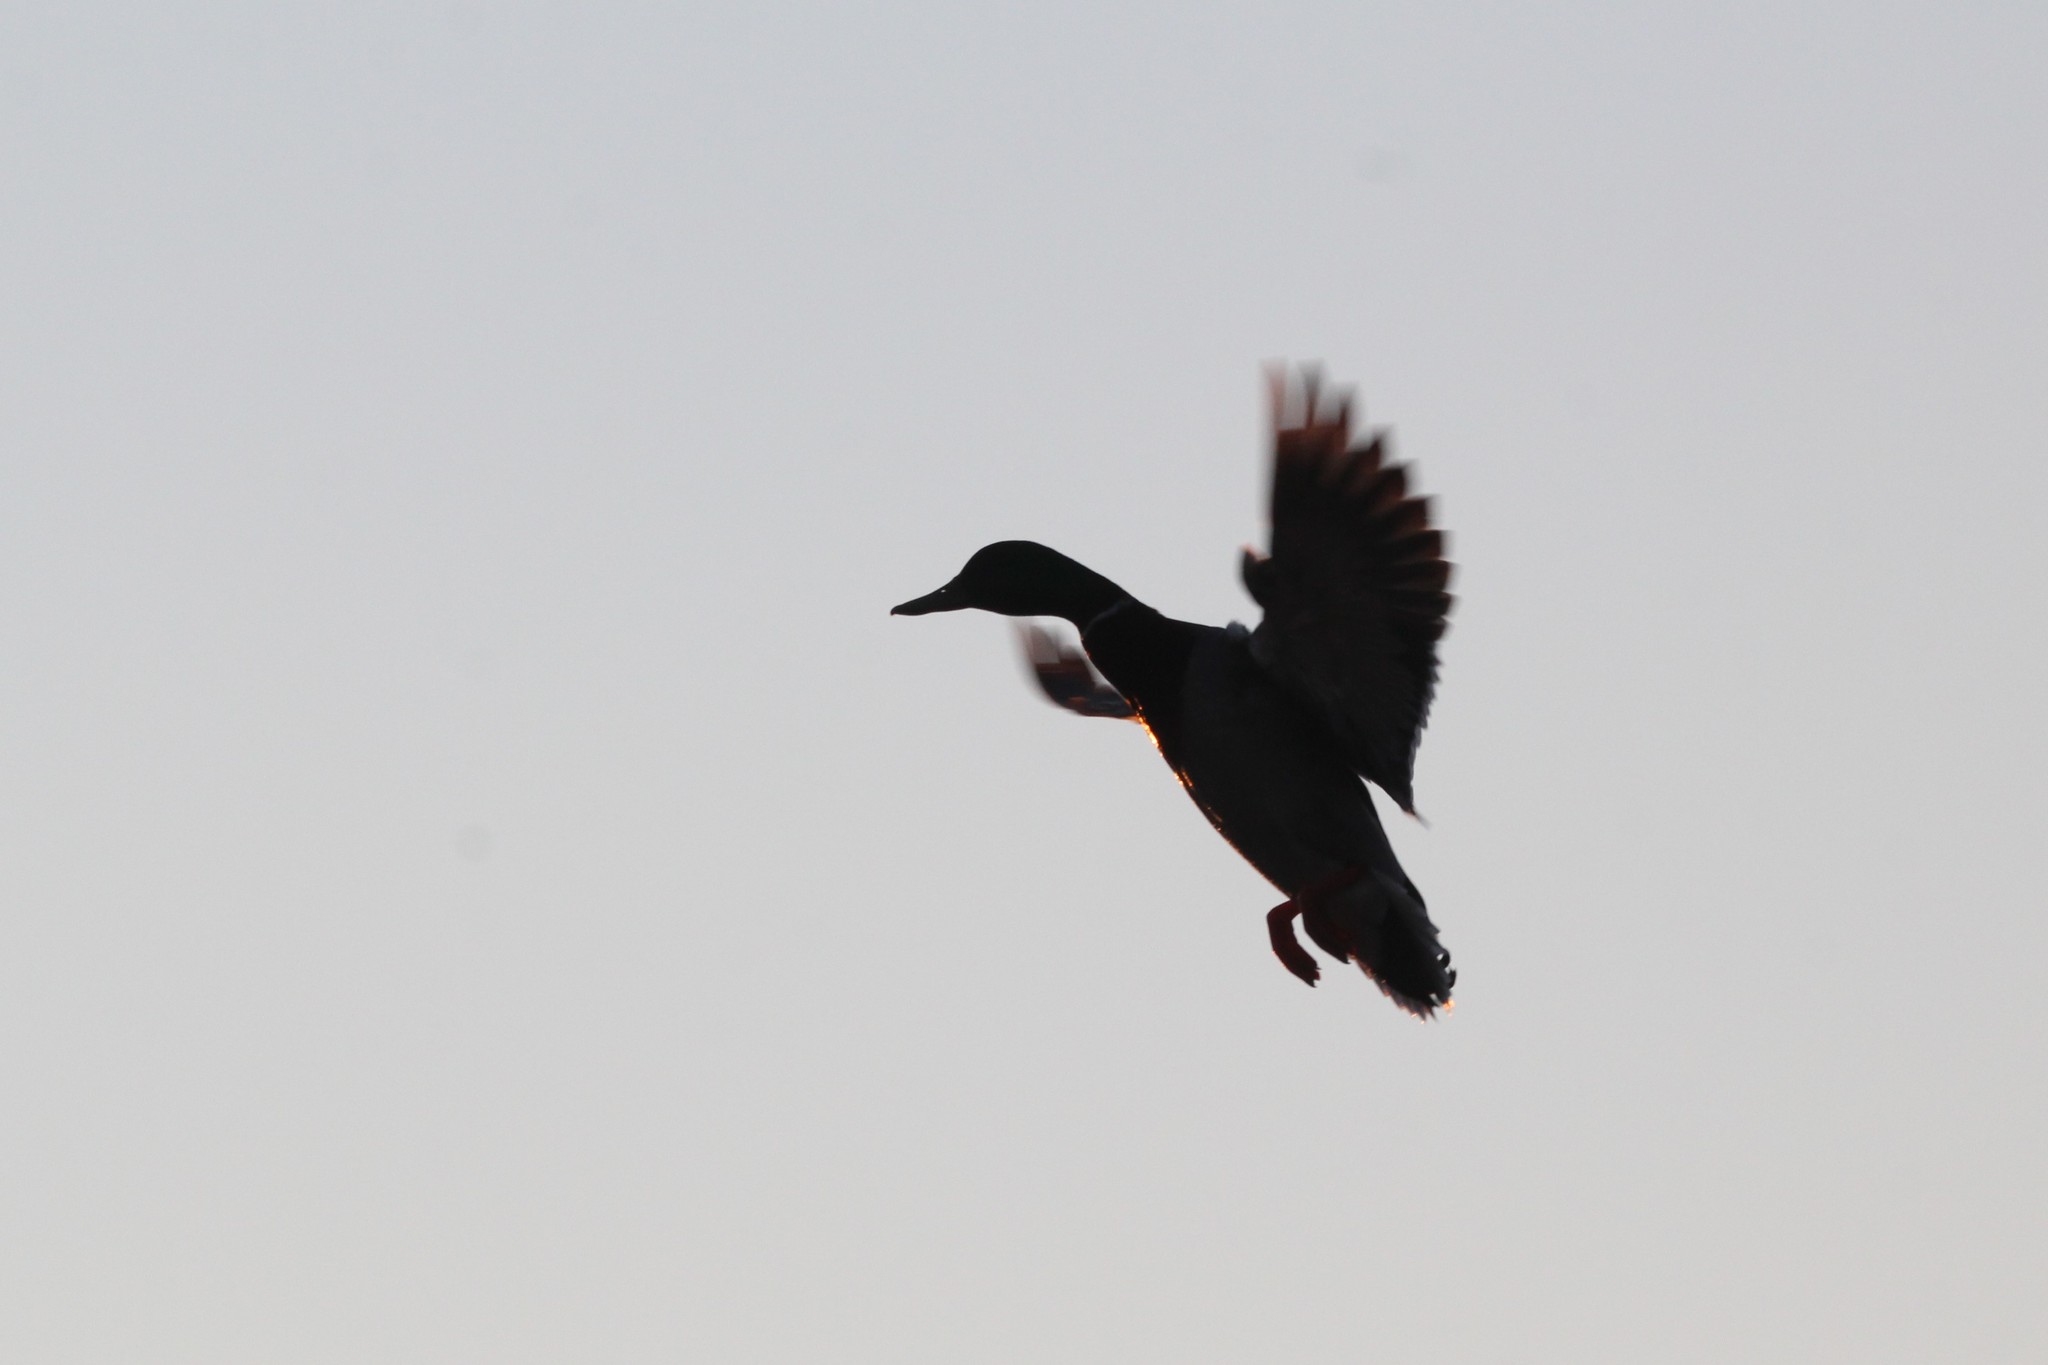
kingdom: Animalia
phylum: Chordata
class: Aves
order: Anseriformes
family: Anatidae
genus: Anas
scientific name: Anas platyrhynchos
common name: Mallard
